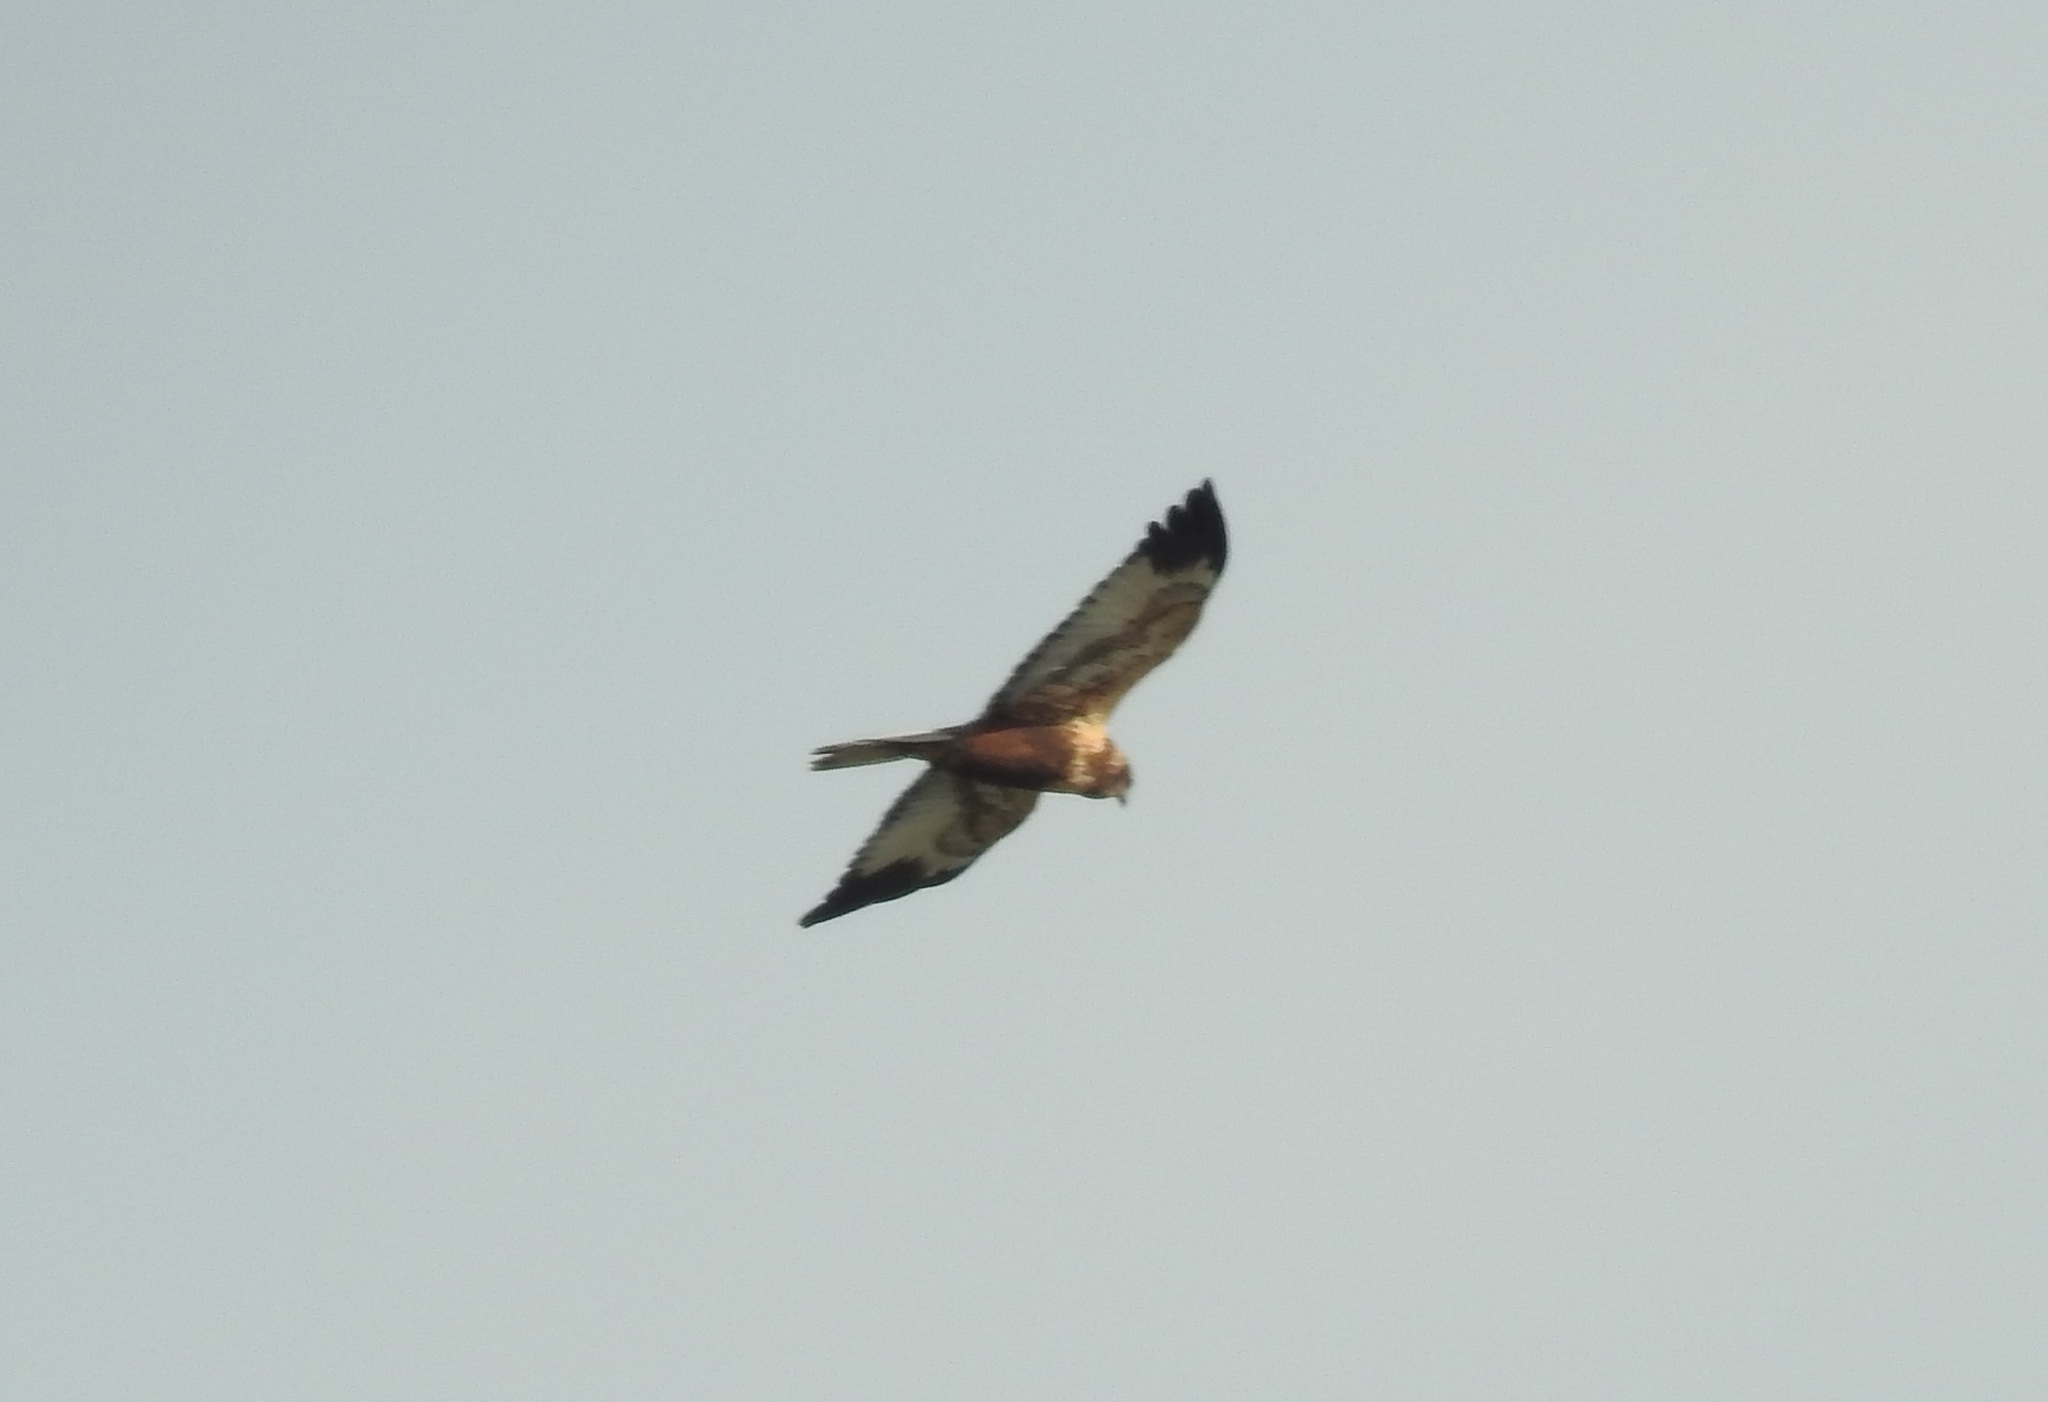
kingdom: Animalia
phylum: Chordata
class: Aves
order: Accipitriformes
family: Accipitridae
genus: Circus
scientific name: Circus aeruginosus
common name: Western marsh harrier
